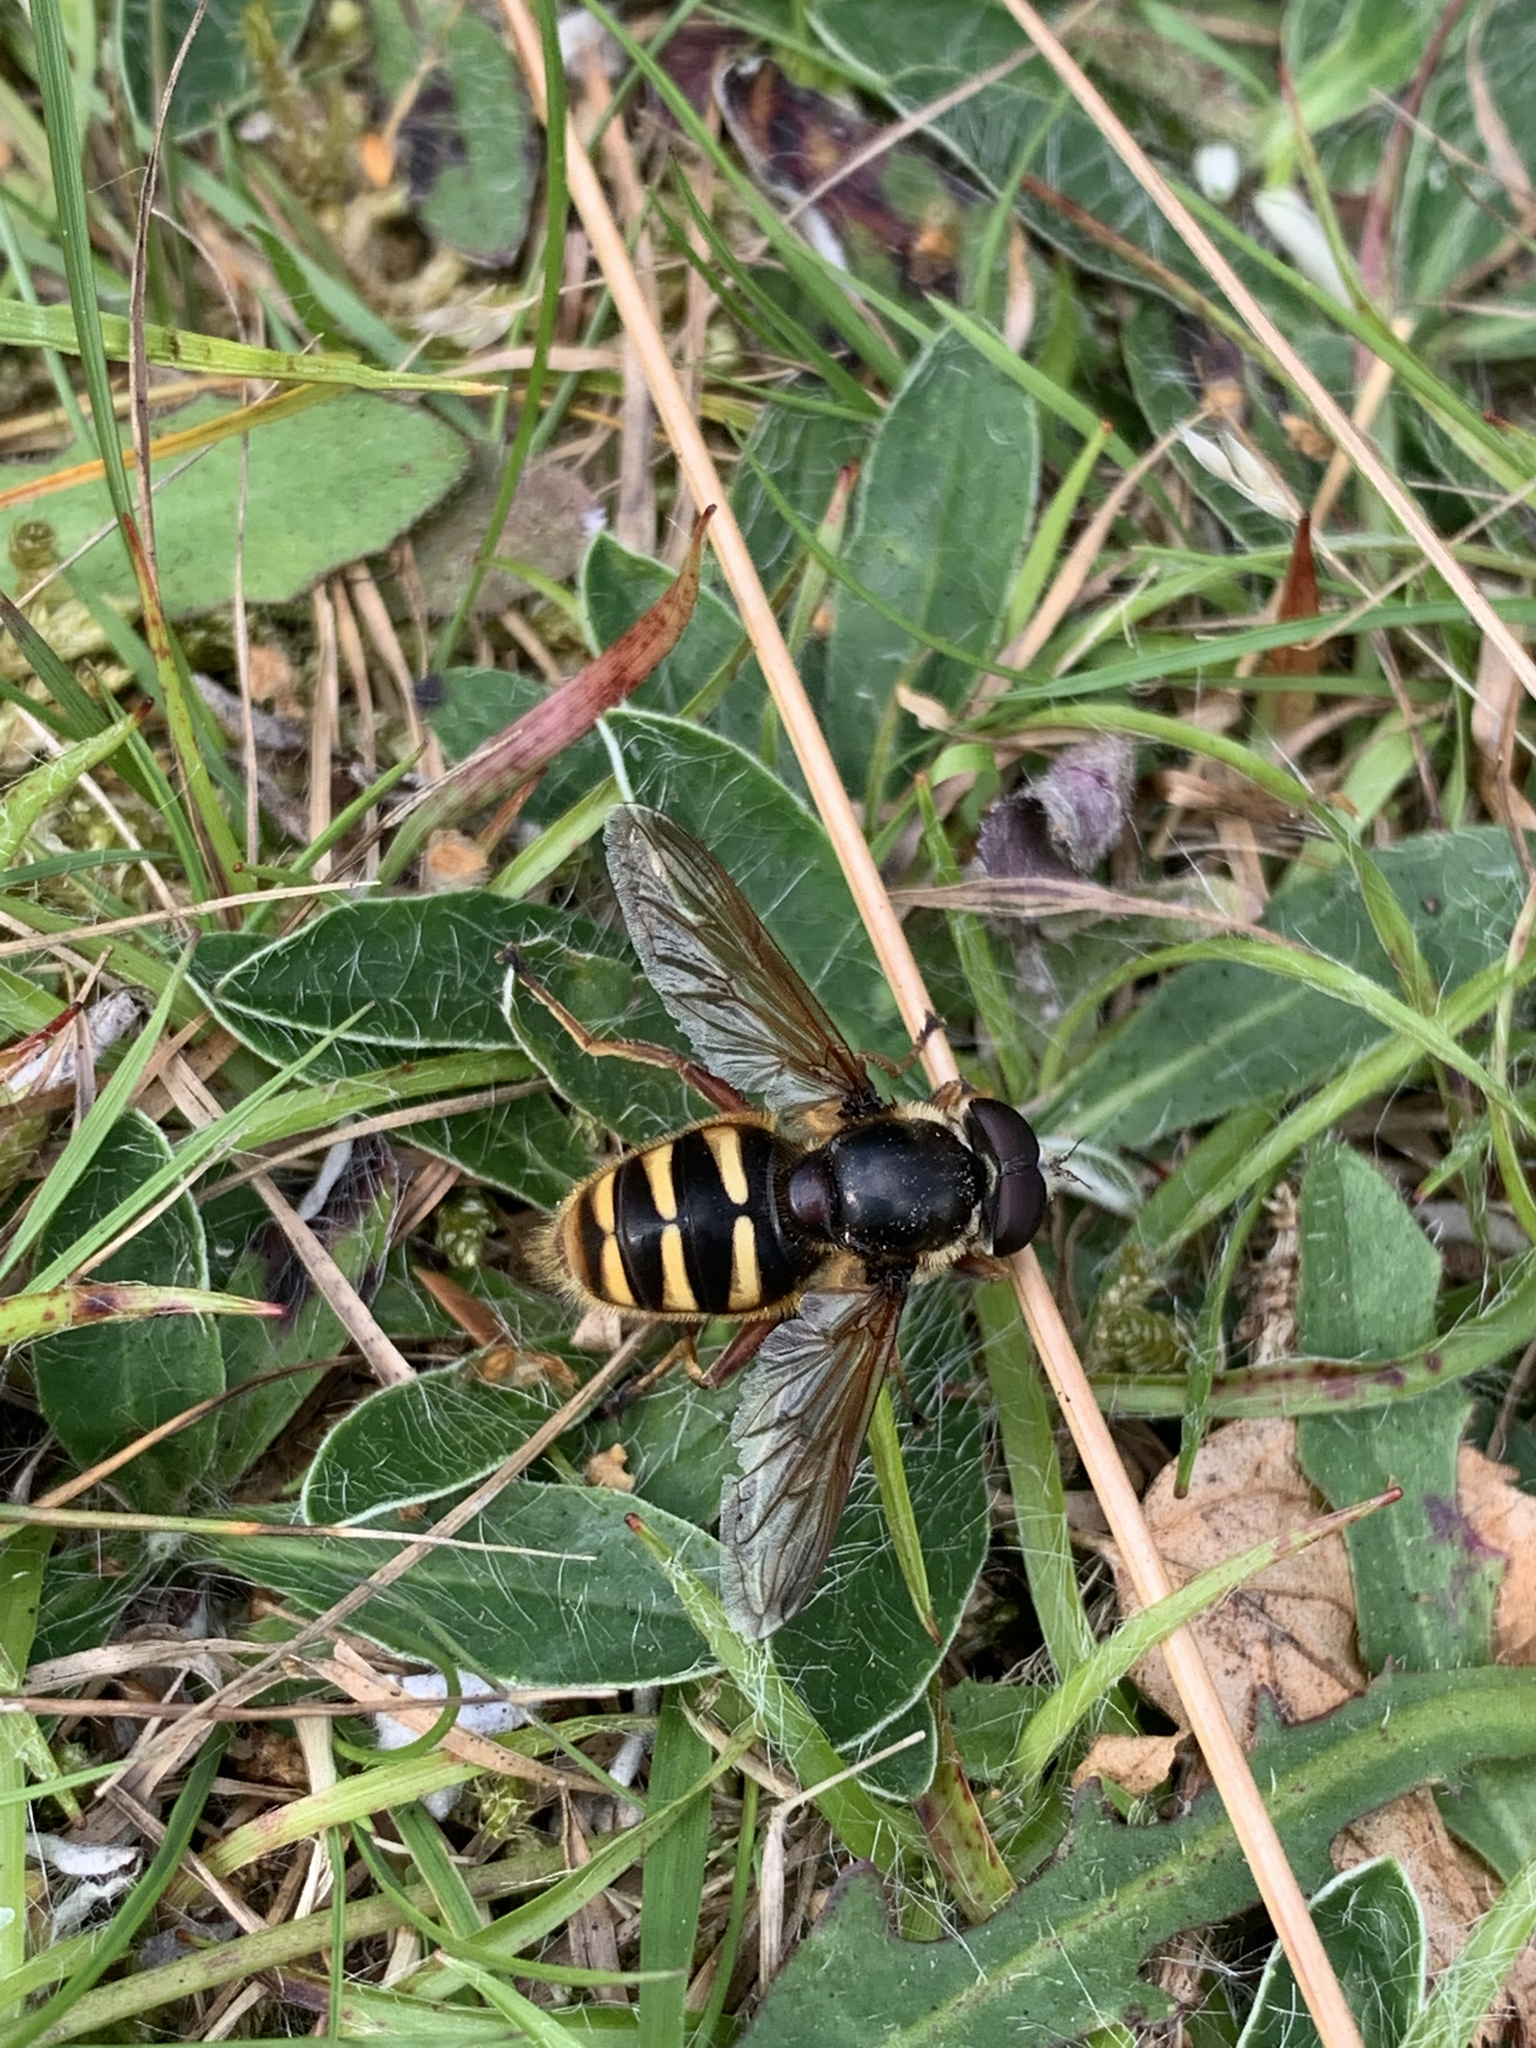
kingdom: Animalia
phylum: Arthropoda
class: Insecta
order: Diptera
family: Syrphidae
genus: Sericomyia
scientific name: Sericomyia silentis
